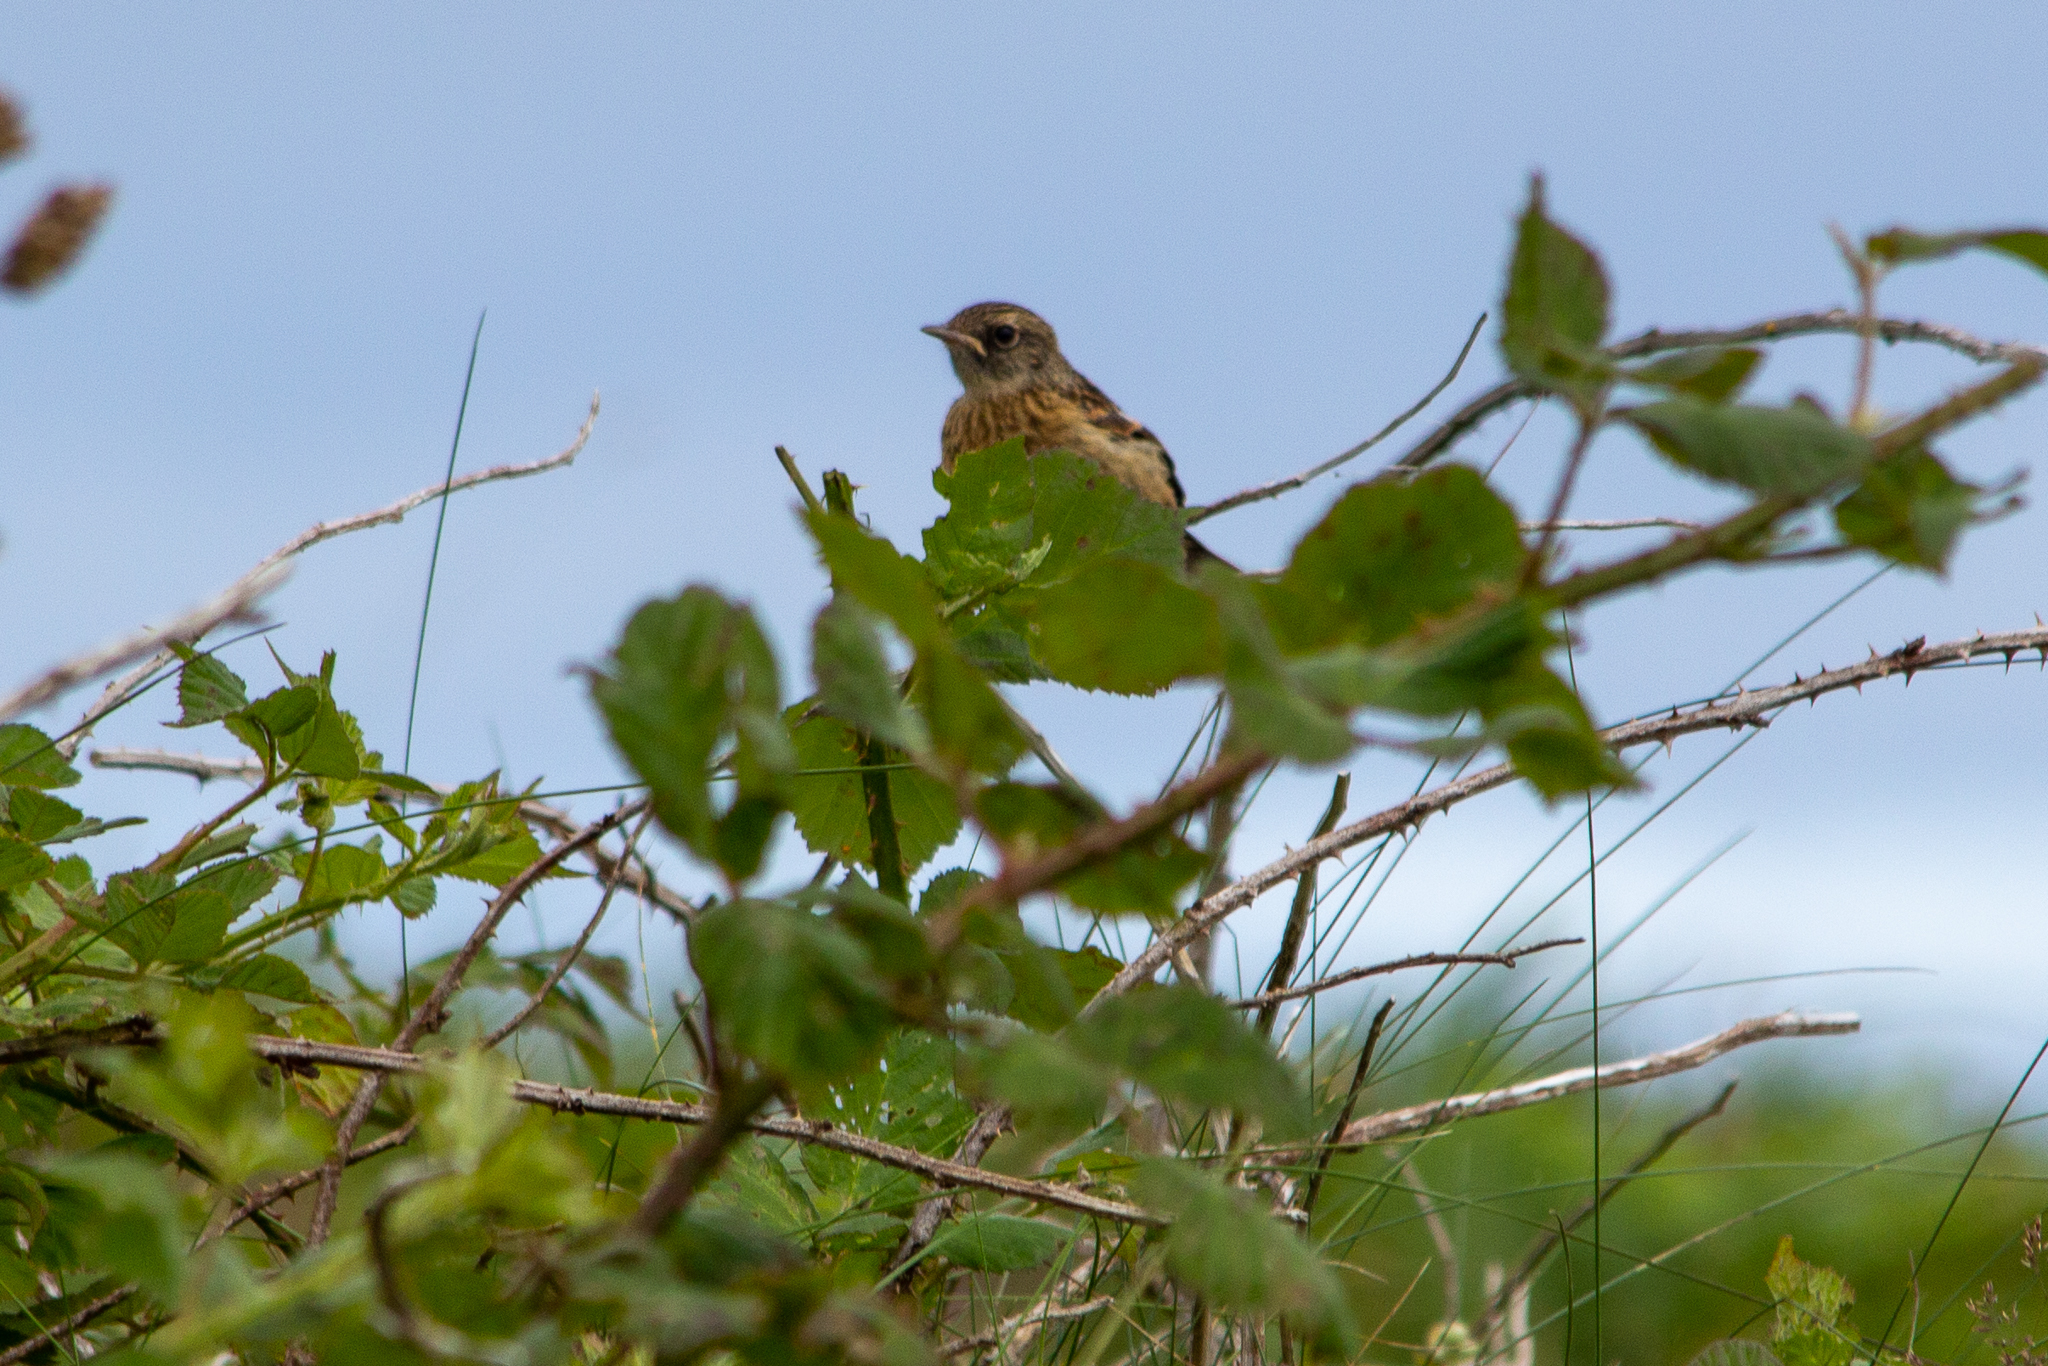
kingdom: Animalia
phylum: Chordata
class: Aves
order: Passeriformes
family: Muscicapidae
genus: Saxicola
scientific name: Saxicola rubicola
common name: European stonechat
